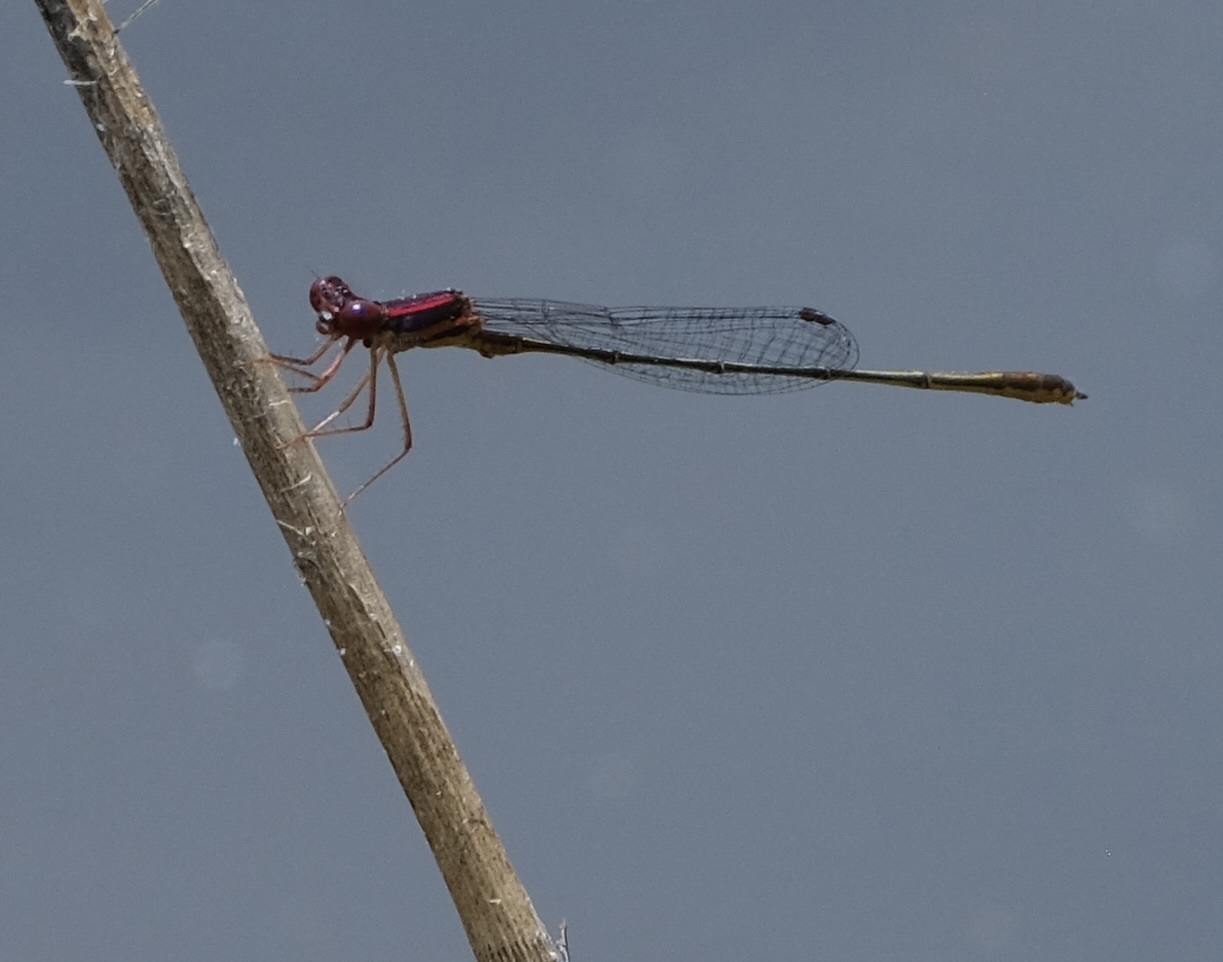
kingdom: Animalia
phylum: Arthropoda
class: Insecta
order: Odonata
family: Coenagrionidae
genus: Enallagma
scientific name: Enallagma dubium
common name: Burgundy bluet
